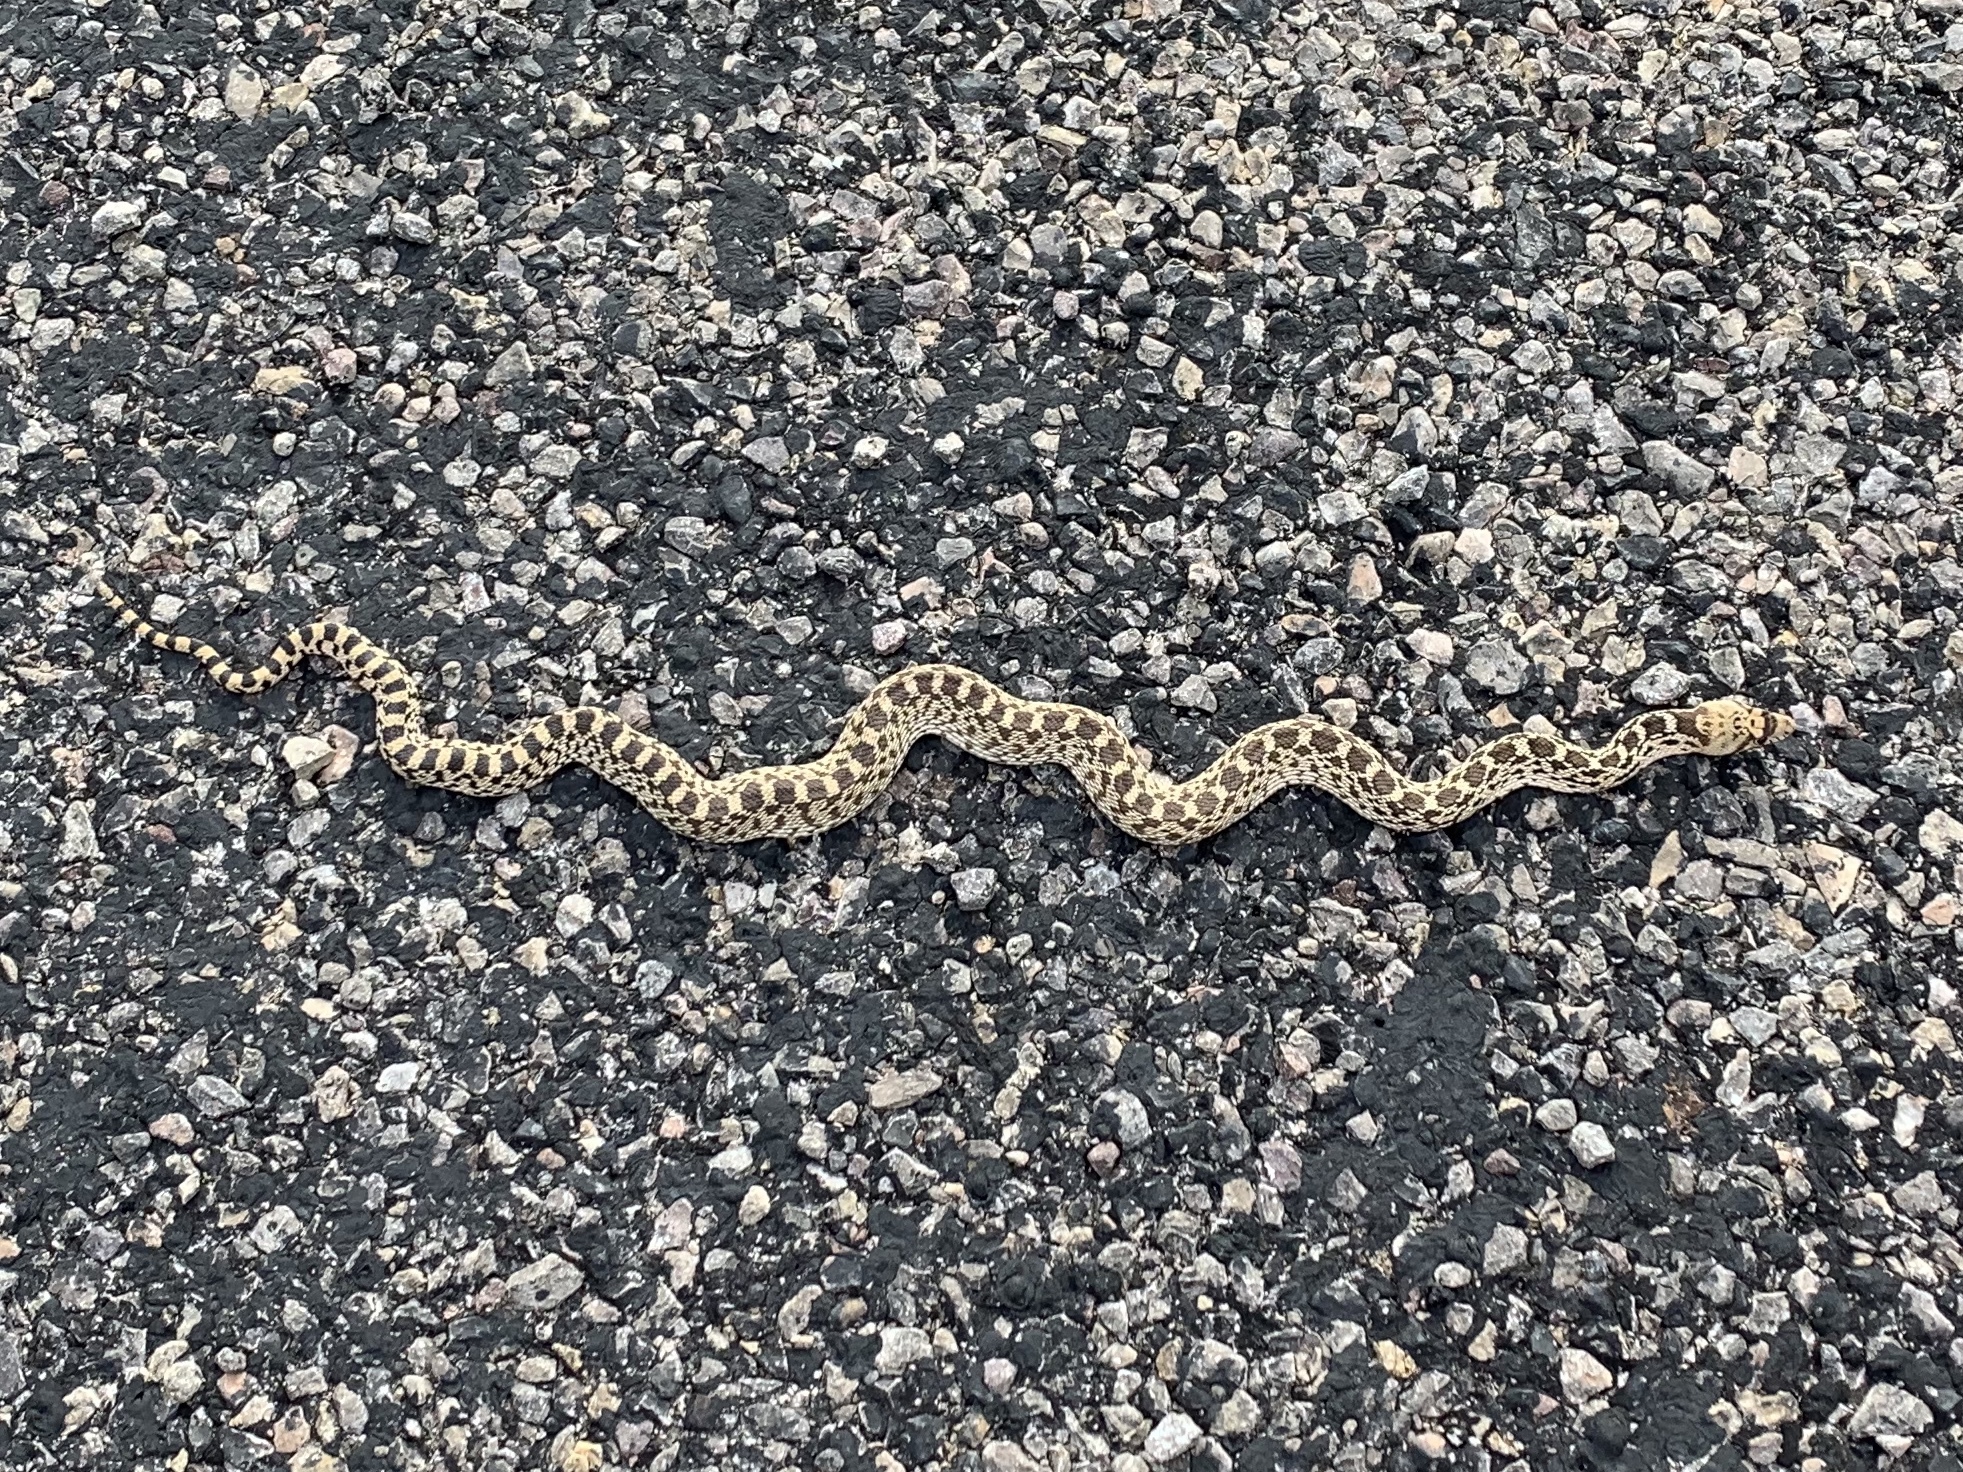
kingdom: Animalia
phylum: Chordata
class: Squamata
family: Colubridae
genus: Pituophis
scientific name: Pituophis catenifer
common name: Gopher snake
